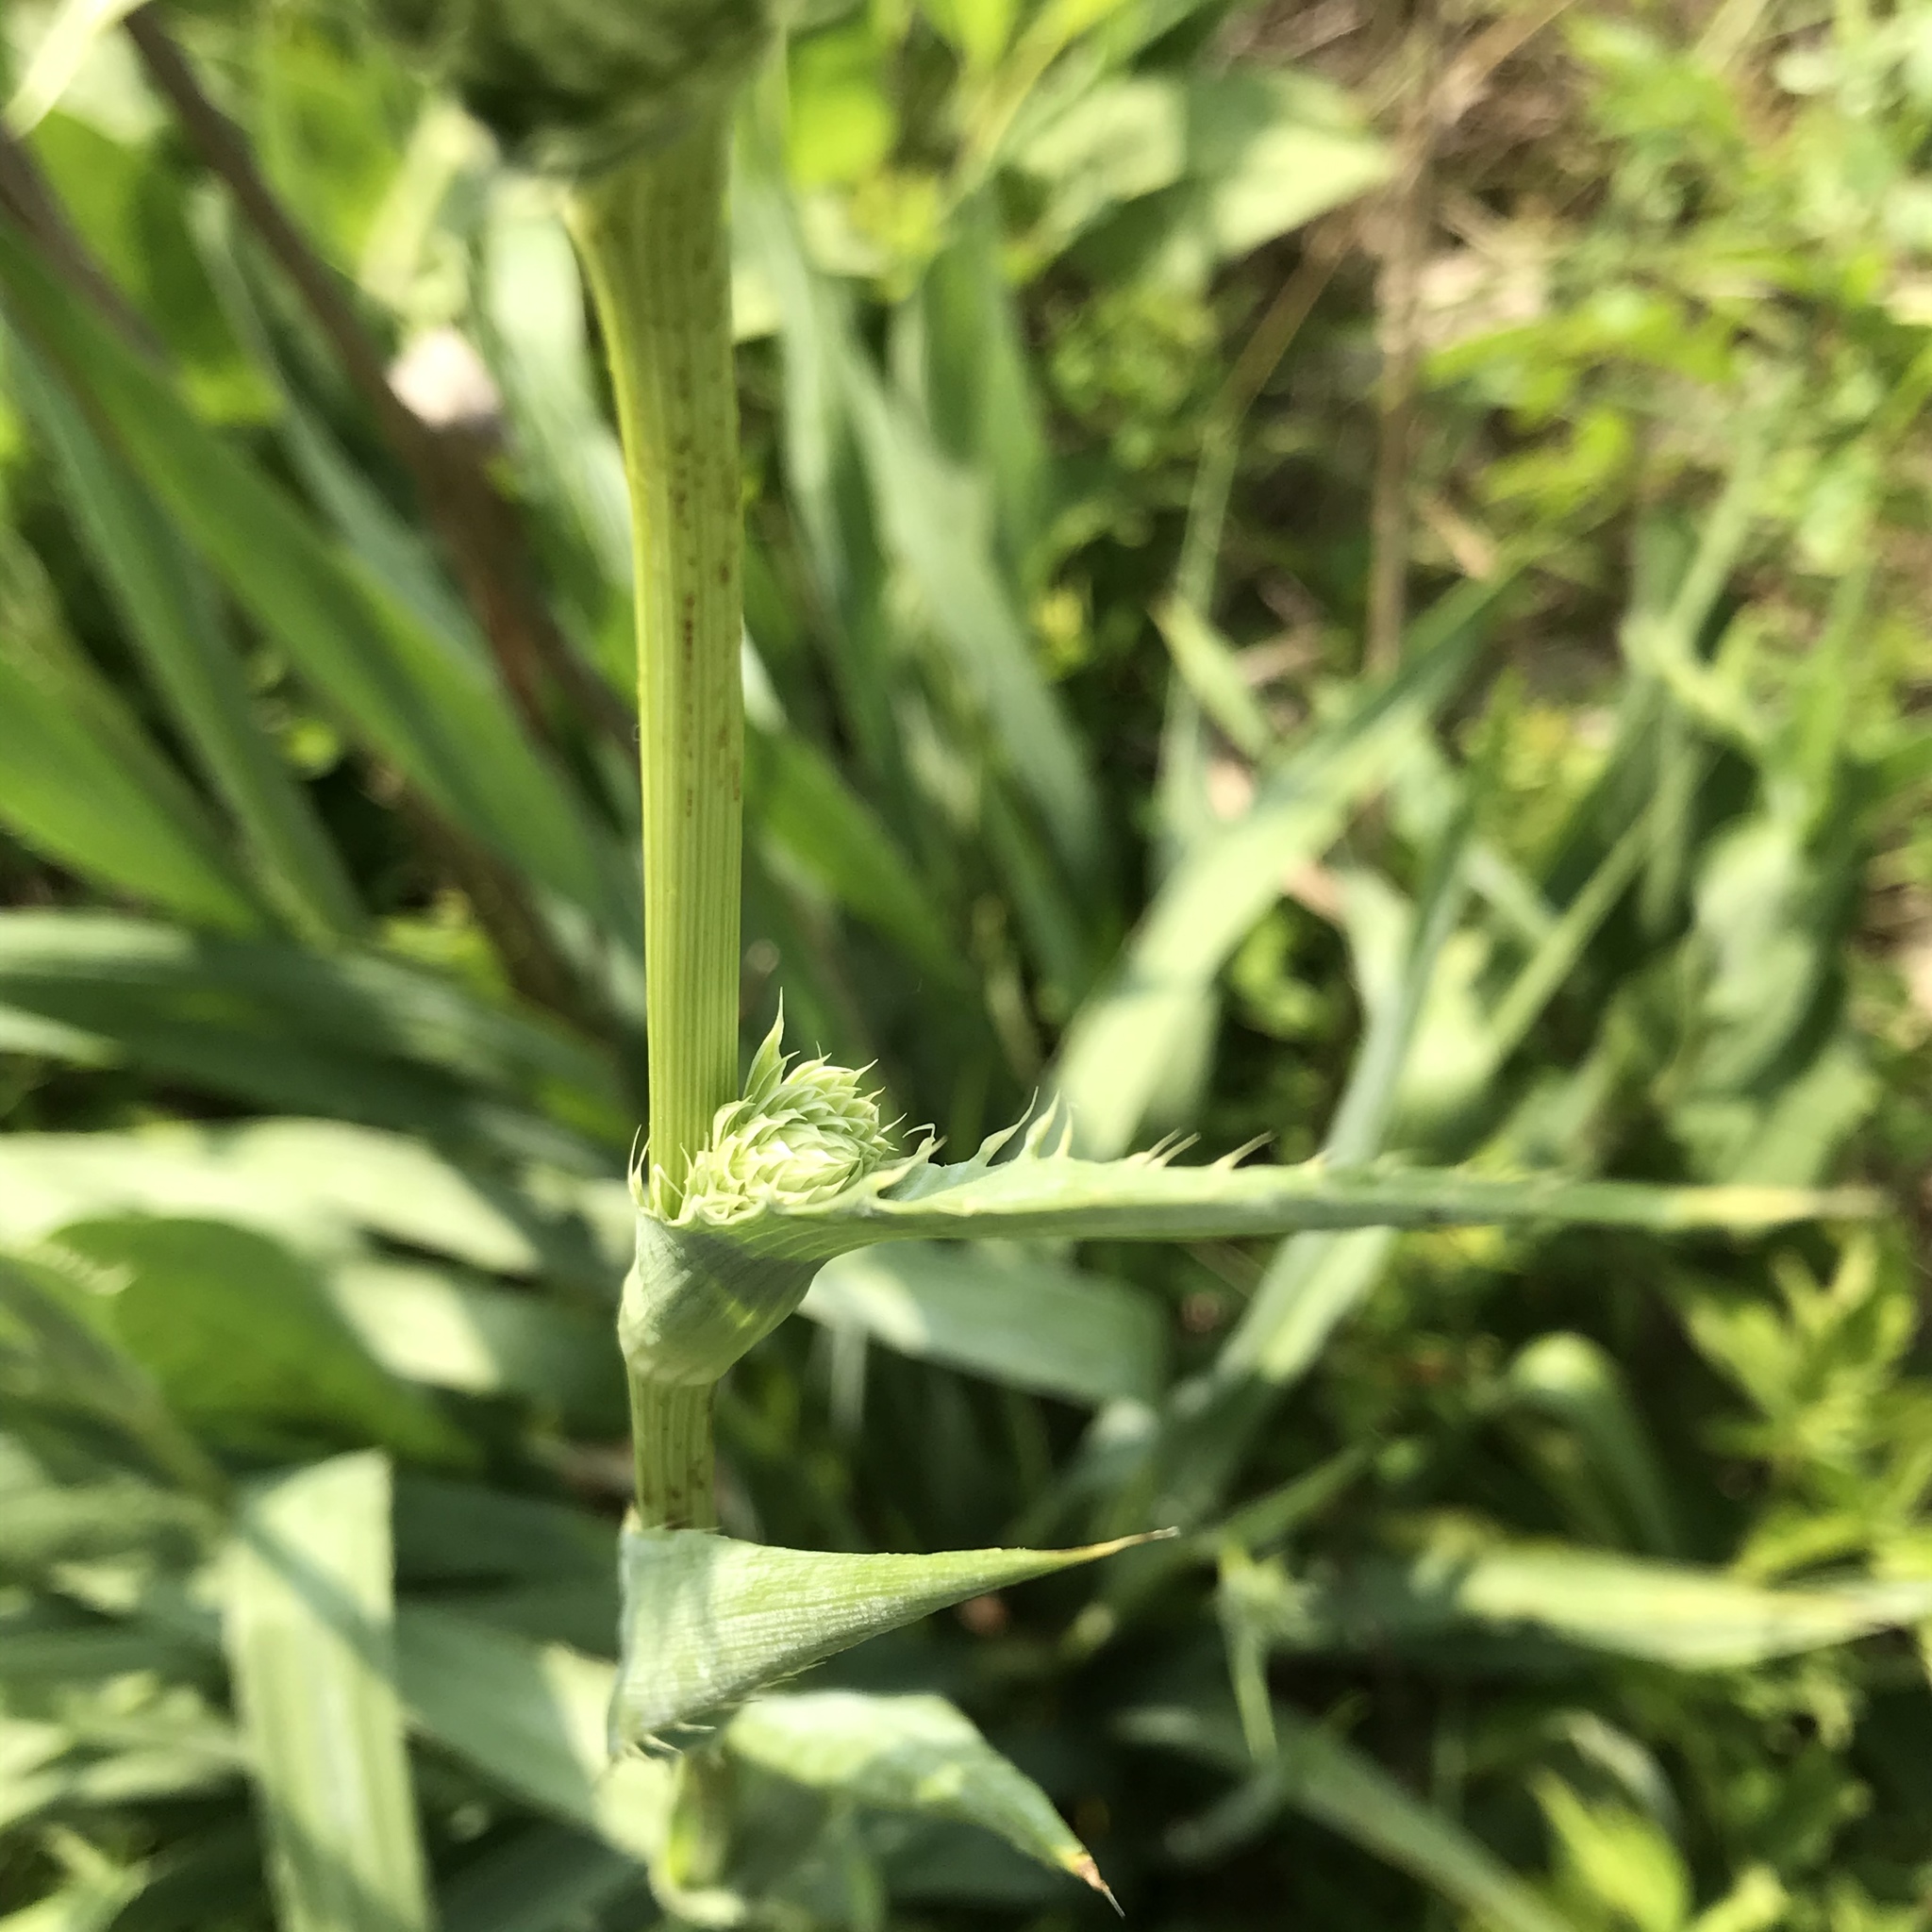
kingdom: Plantae
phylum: Tracheophyta
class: Magnoliopsida
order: Apiales
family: Apiaceae
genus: Eryngium
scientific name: Eryngium yuccifolium
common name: Button eryngo
